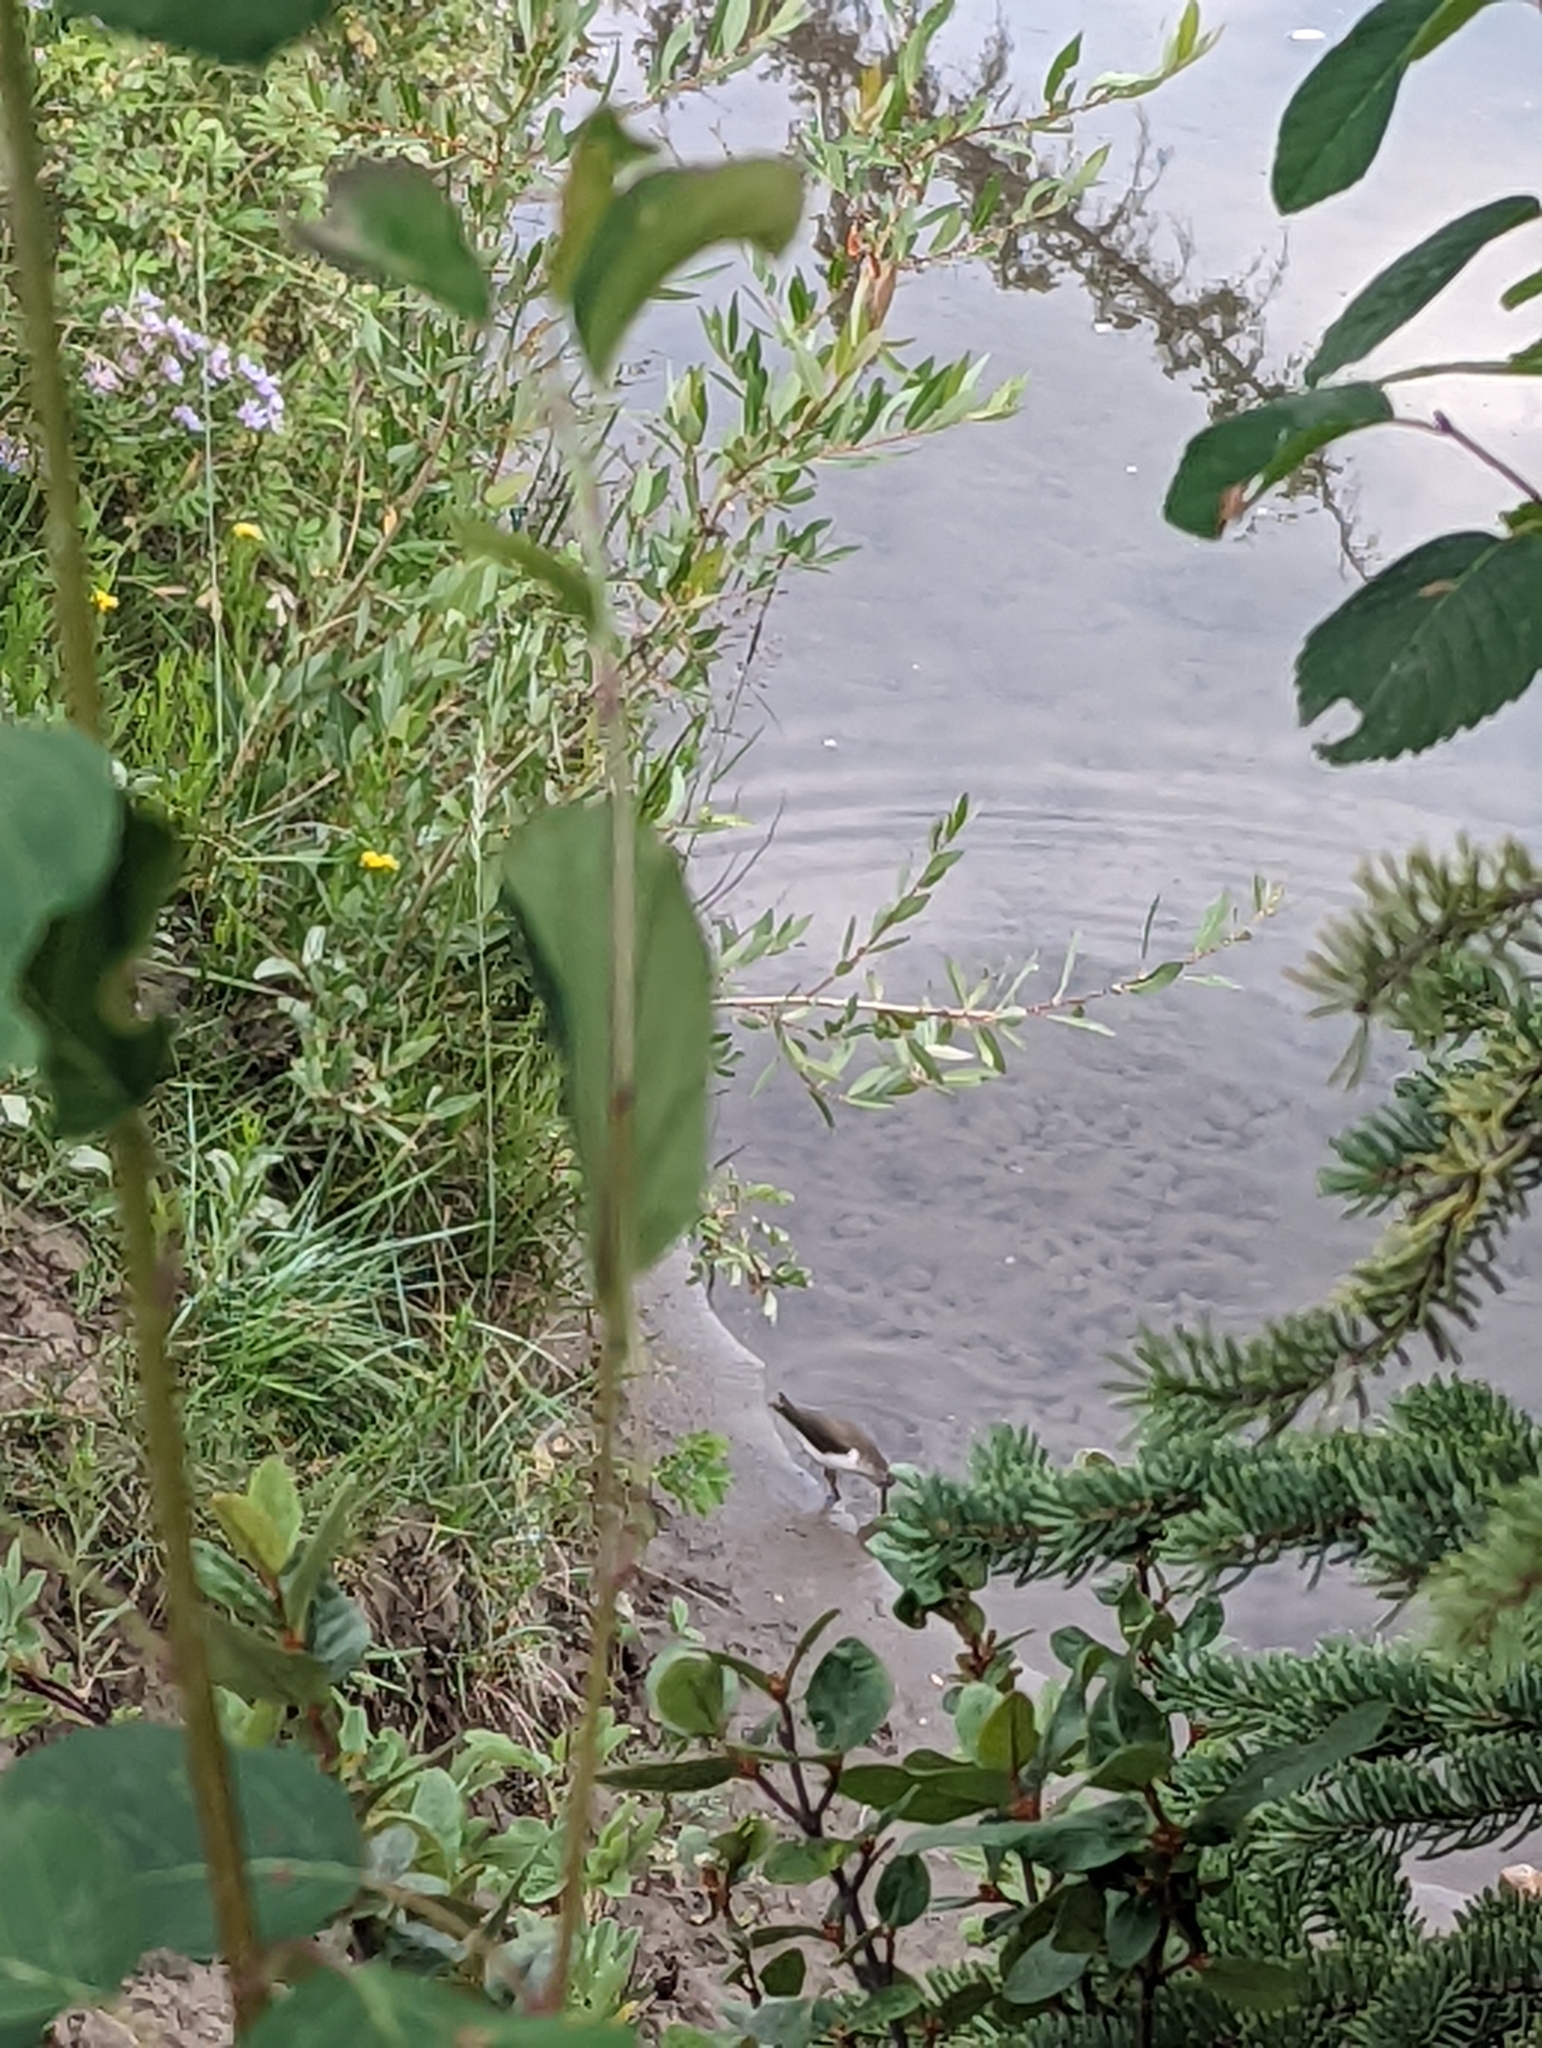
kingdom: Animalia
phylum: Chordata
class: Aves
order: Charadriiformes
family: Scolopacidae
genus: Actitis
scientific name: Actitis macularius
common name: Spotted sandpiper
